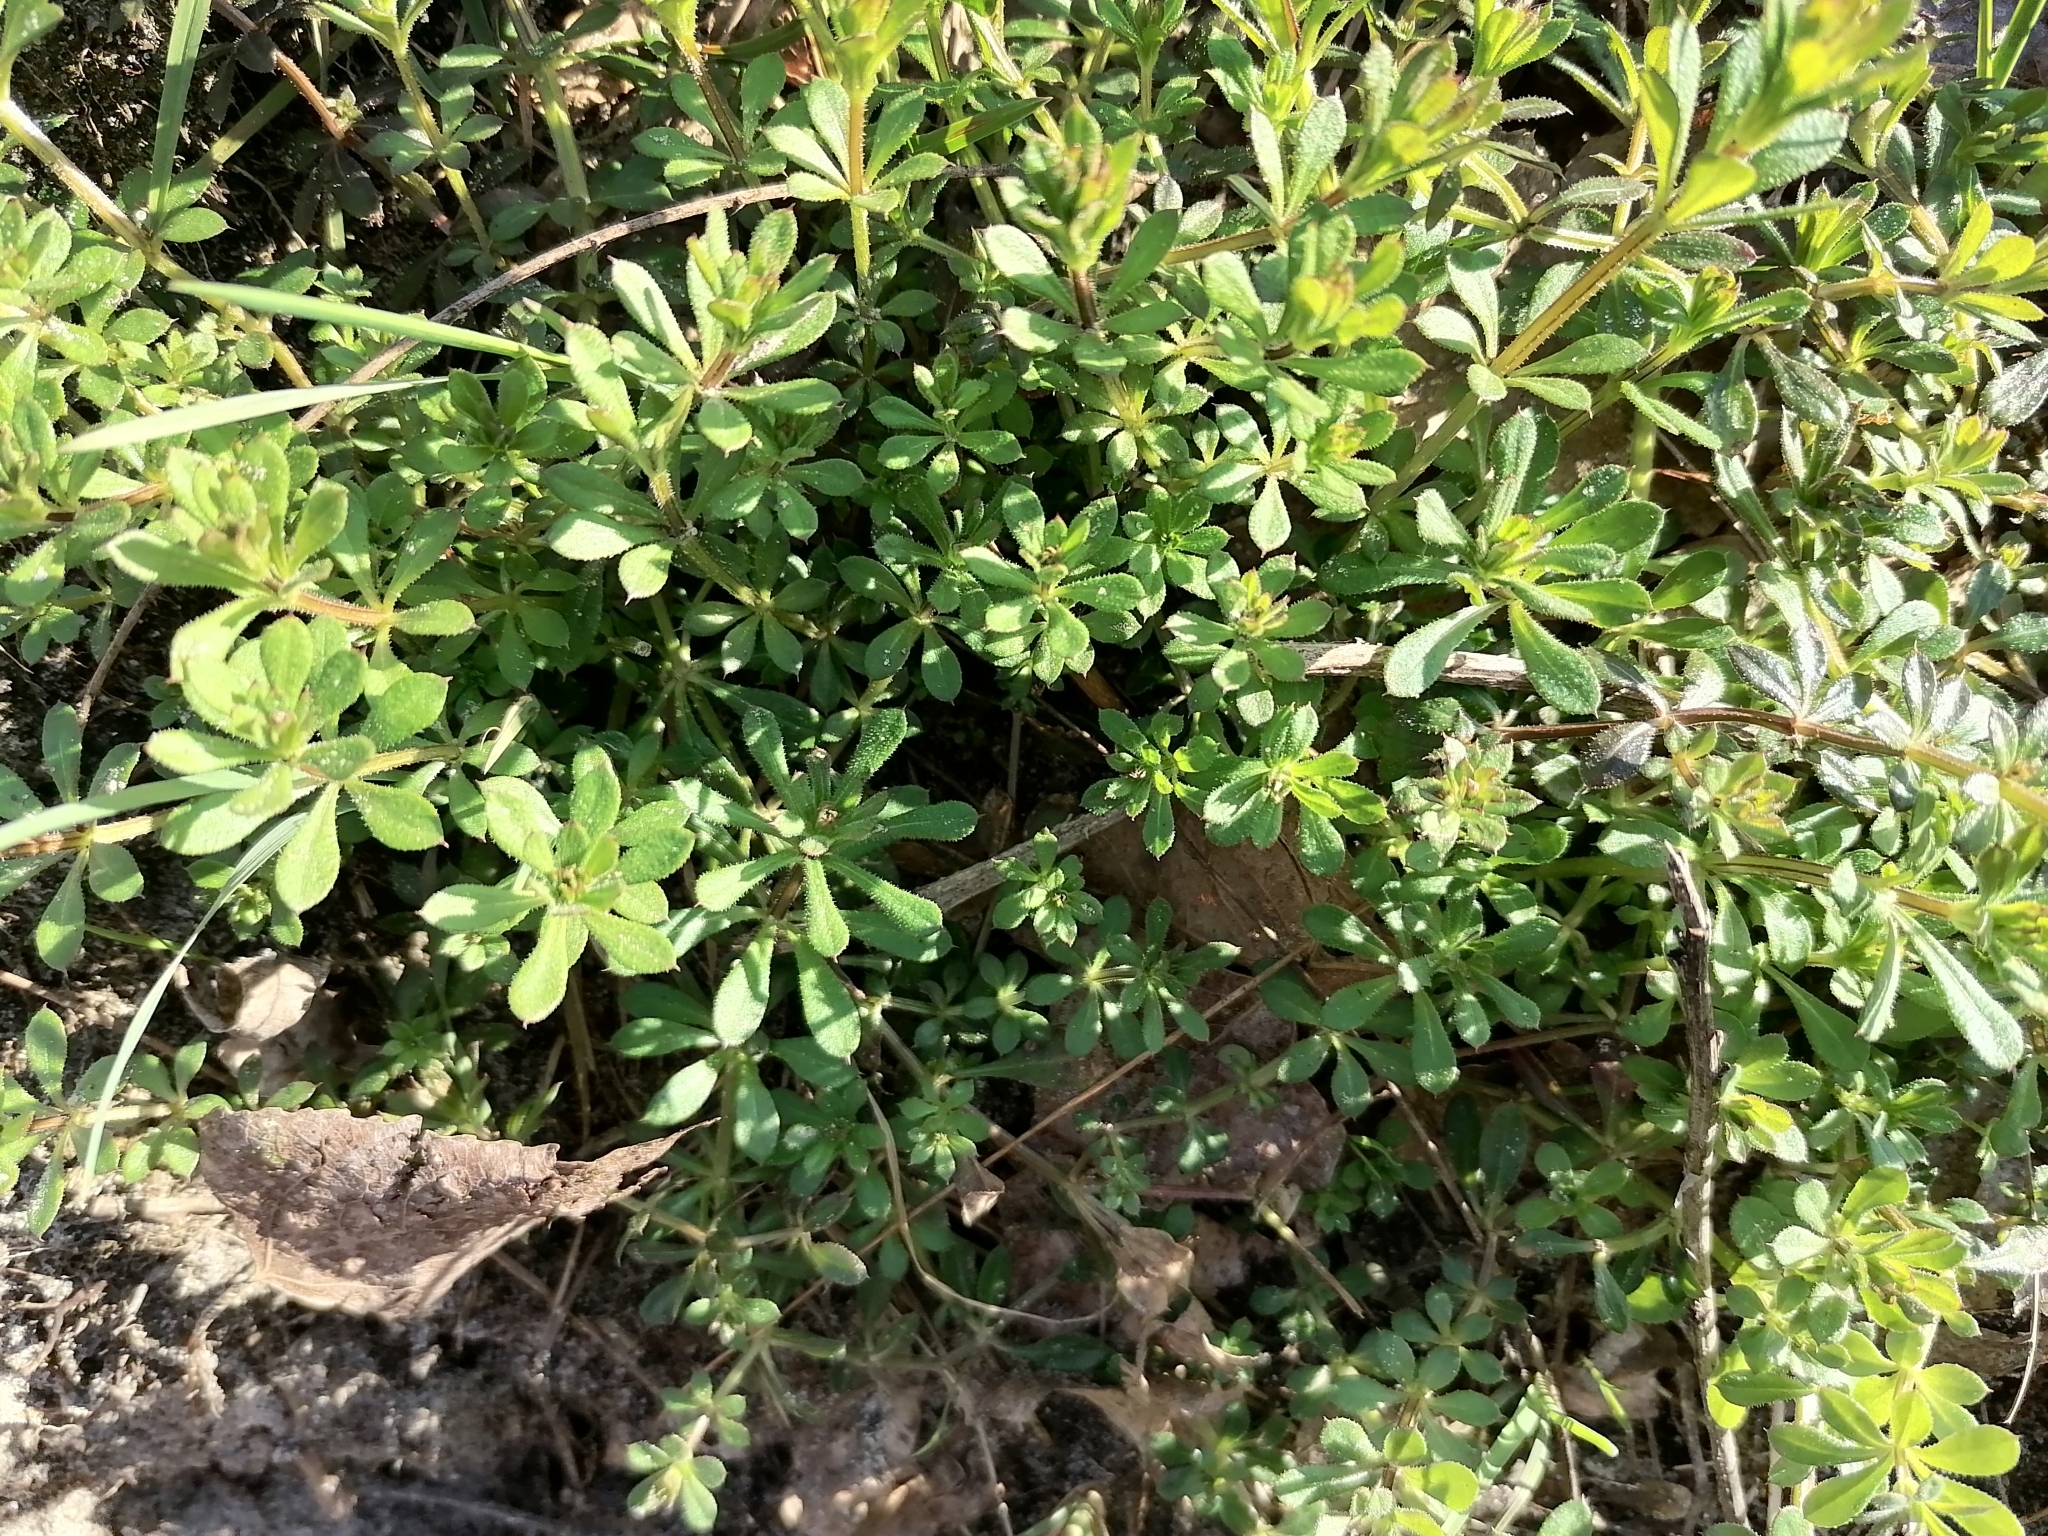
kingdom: Plantae
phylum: Tracheophyta
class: Magnoliopsida
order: Gentianales
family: Rubiaceae
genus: Galium
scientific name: Galium aparine
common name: Cleavers
